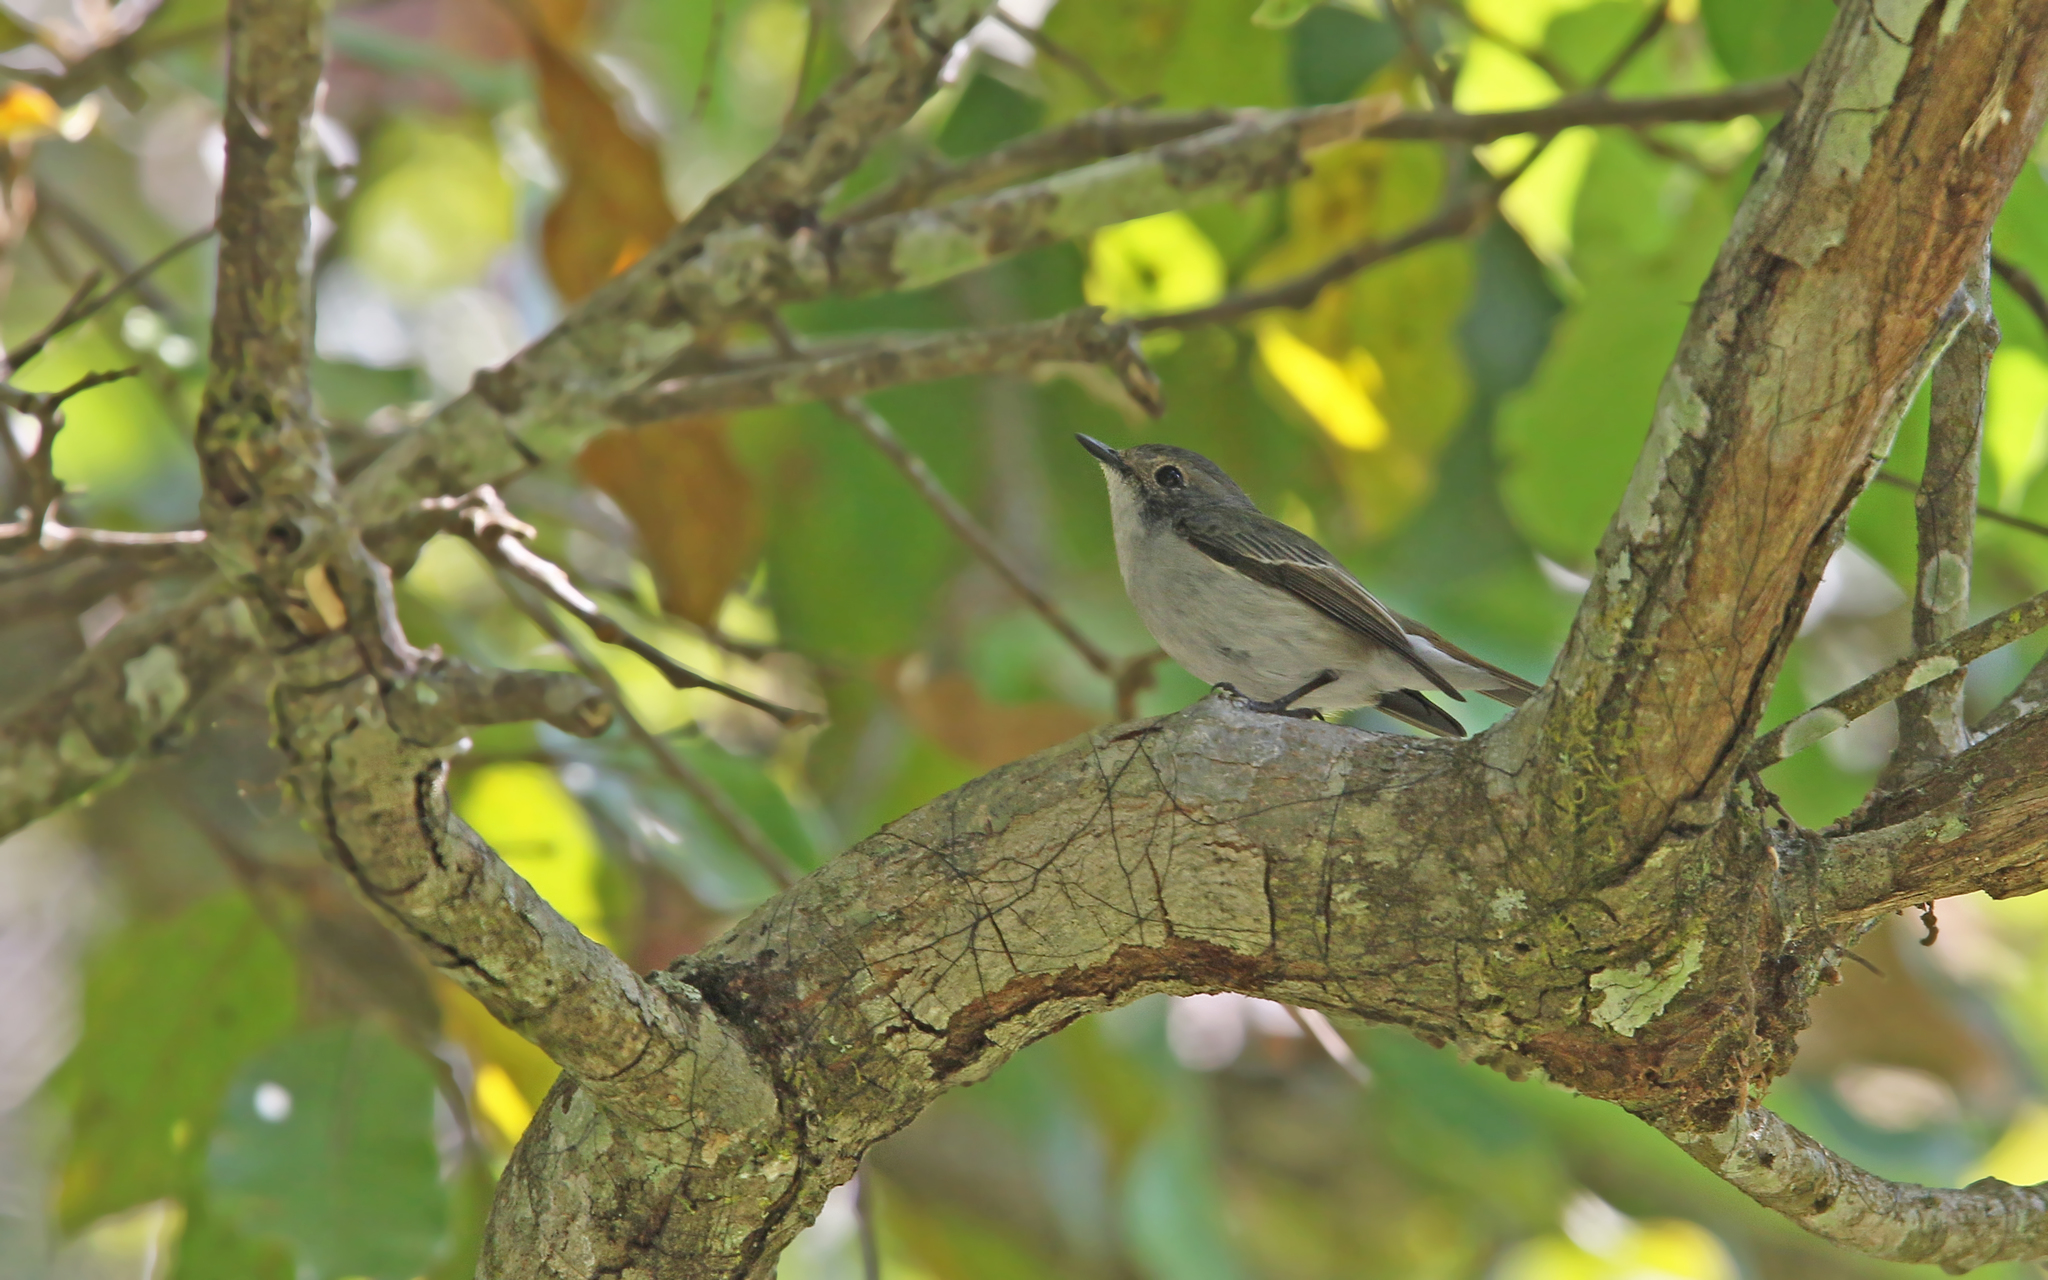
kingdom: Animalia
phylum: Chordata
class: Aves
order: Passeriformes
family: Muscicapidae
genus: Ficedula
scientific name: Ficedula westermanni
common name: Little pied flycatcher
